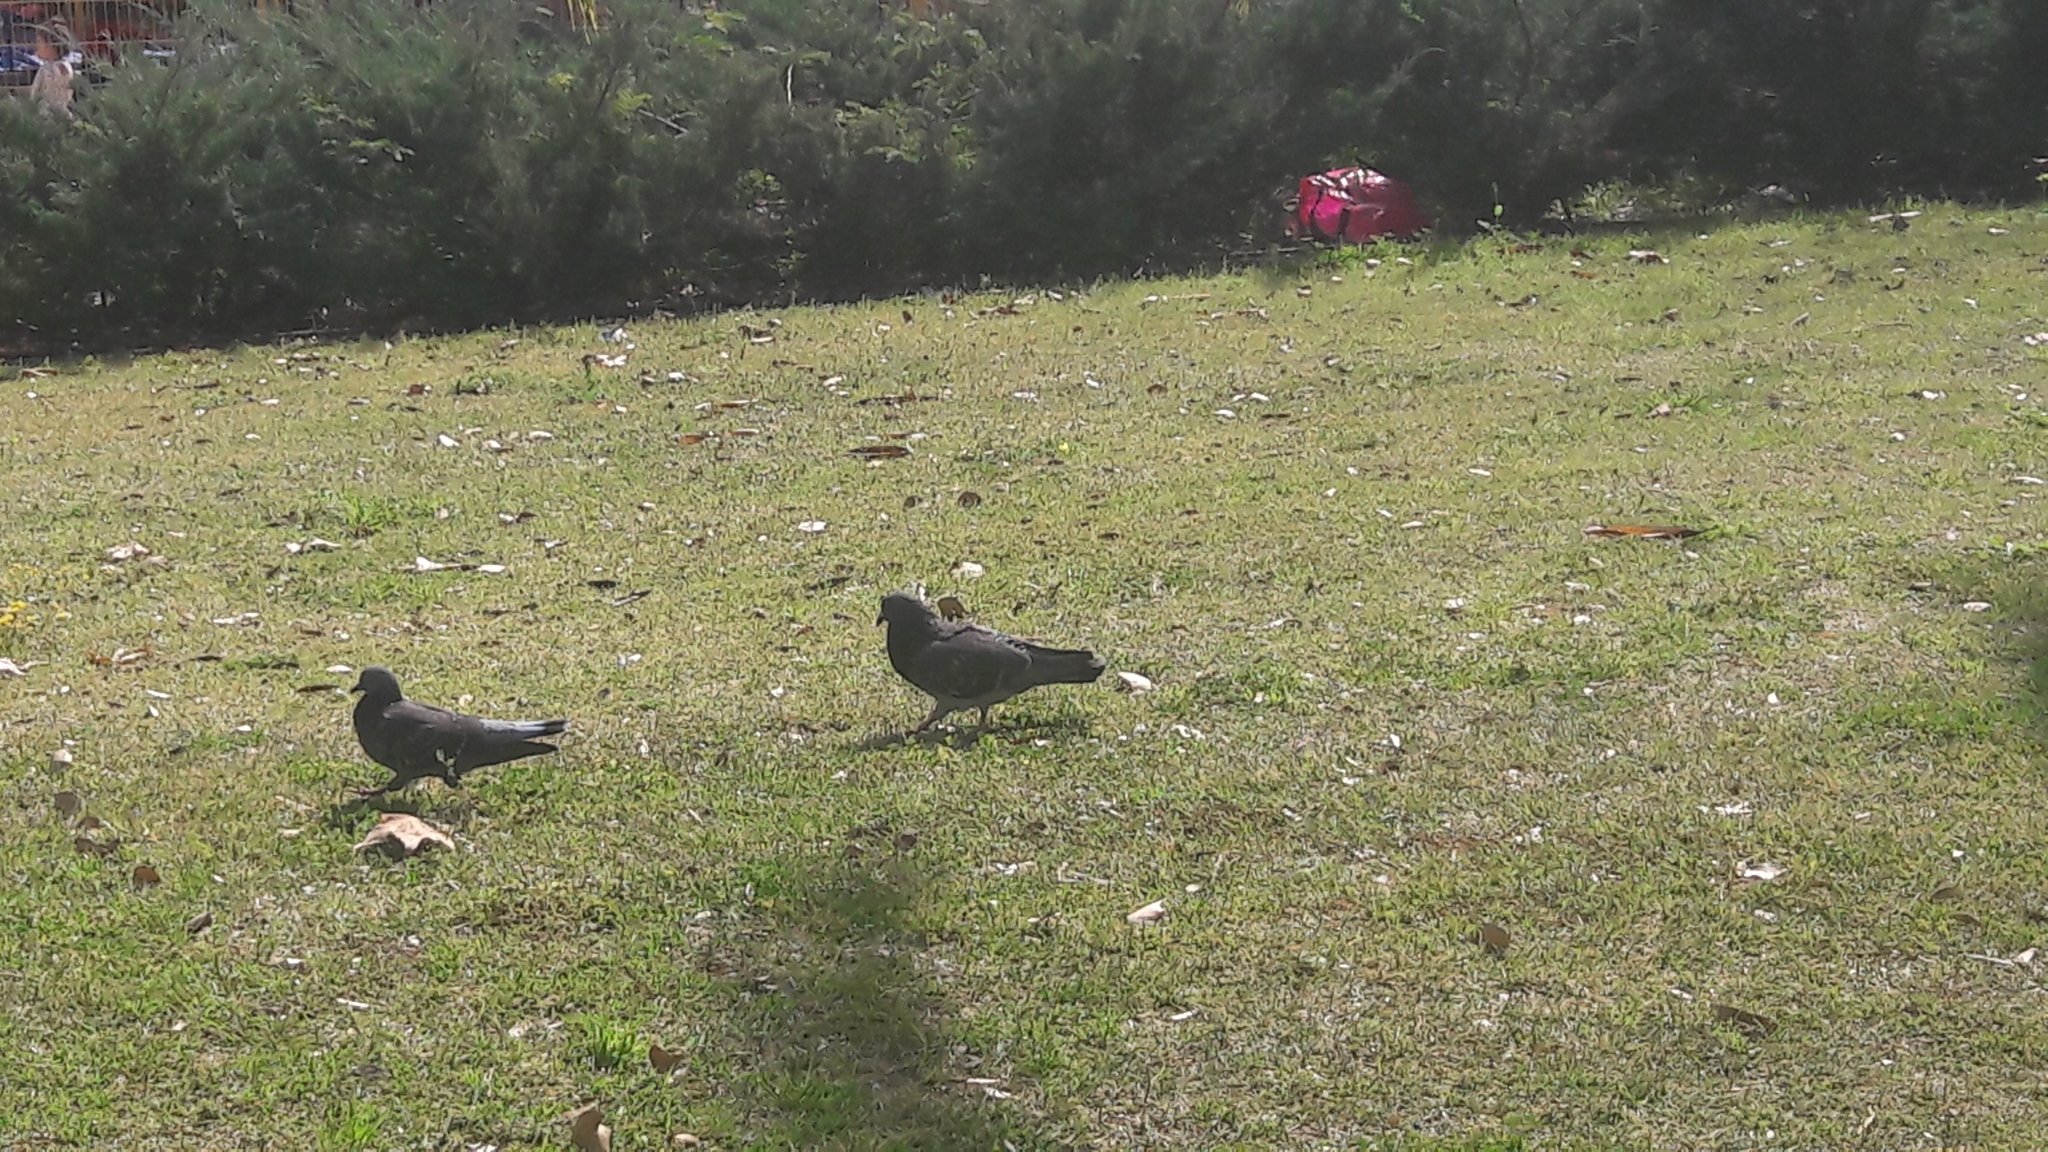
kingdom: Animalia
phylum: Chordata
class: Aves
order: Columbiformes
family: Columbidae
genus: Columba
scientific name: Columba livia
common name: Rock pigeon
